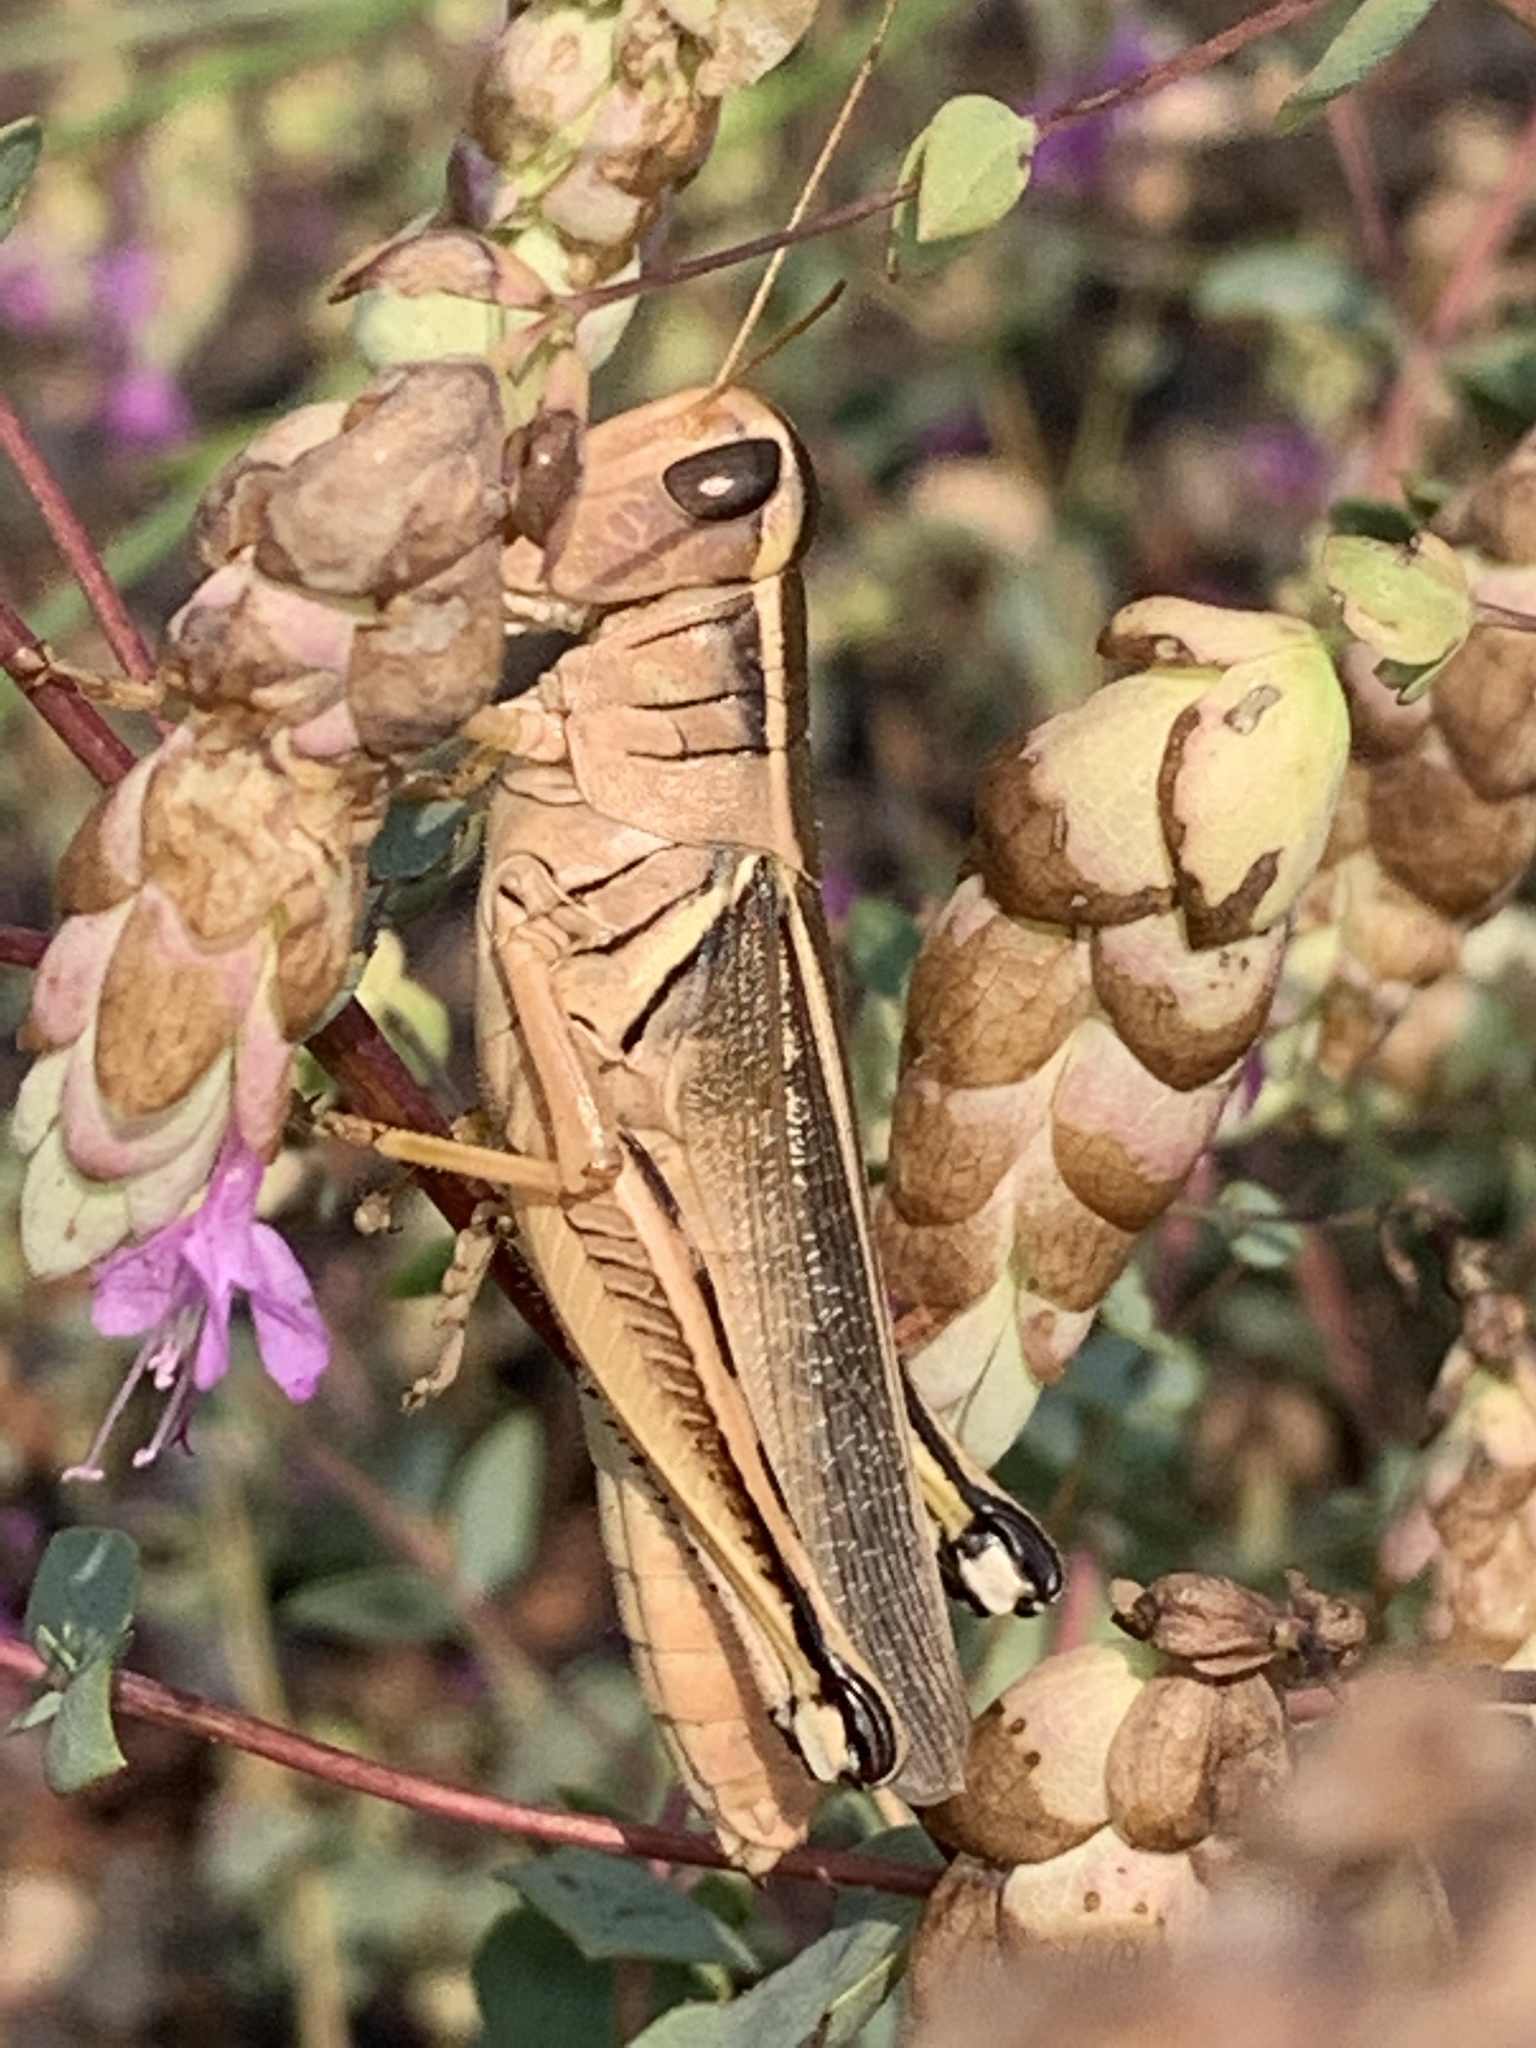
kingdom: Animalia
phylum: Arthropoda
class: Insecta
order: Orthoptera
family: Acrididae
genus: Melanoplus
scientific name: Melanoplus bivittatus
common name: Two-striped grasshopper
